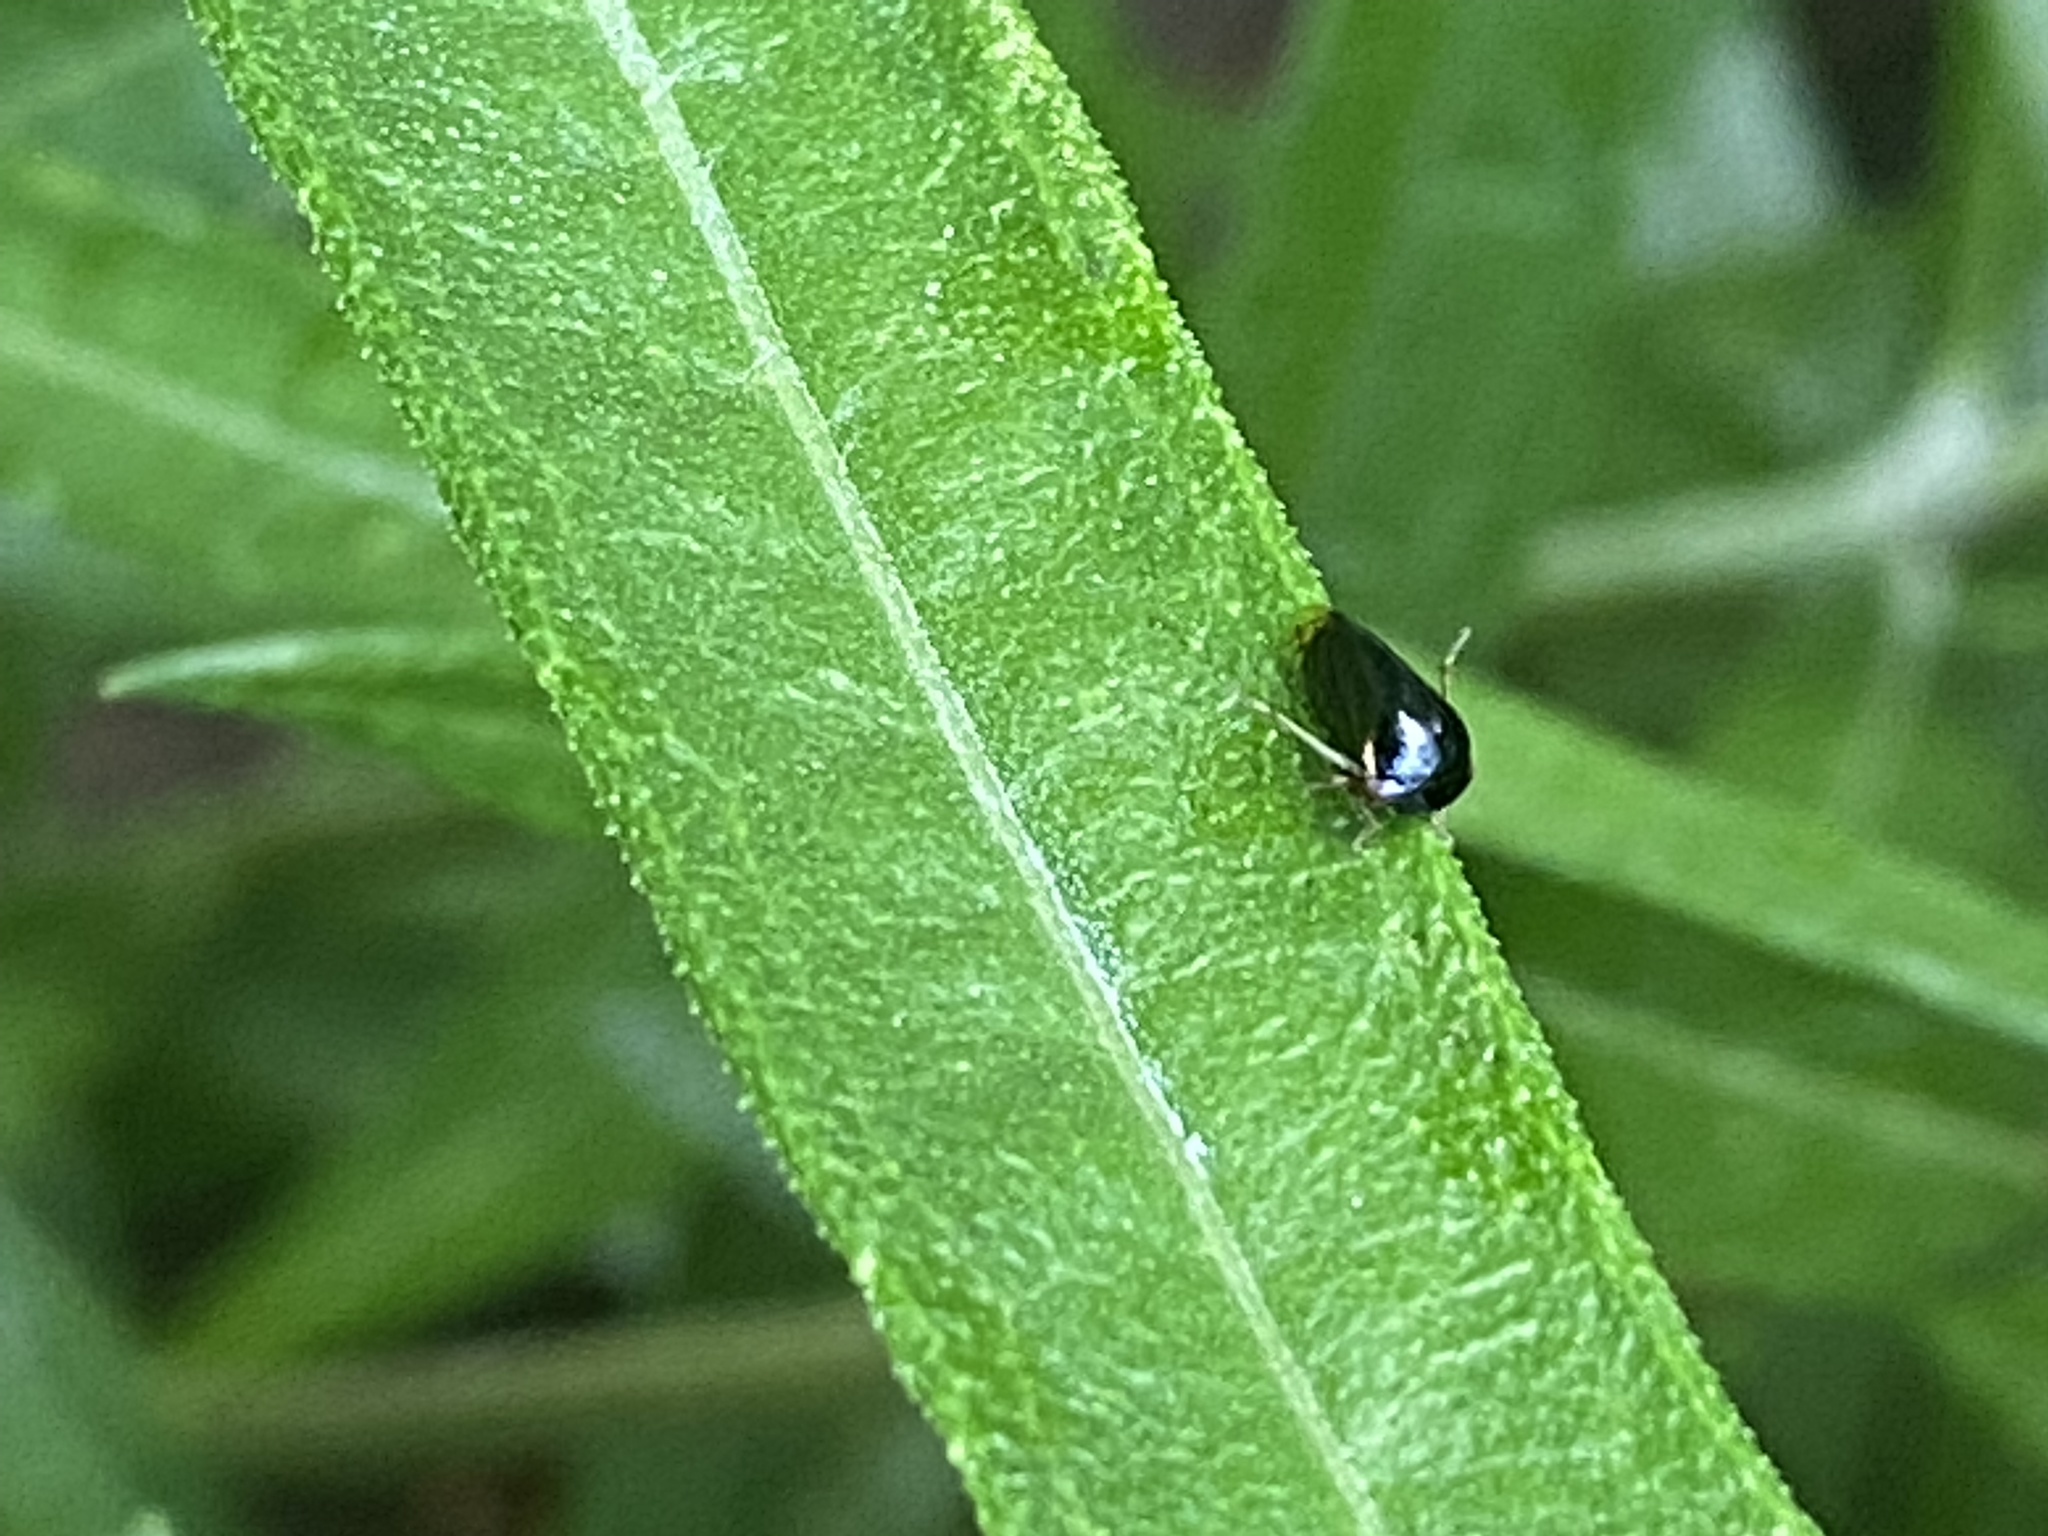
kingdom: Animalia
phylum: Arthropoda
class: Insecta
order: Hemiptera
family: Membracidae
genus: Acutalis
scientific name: Acutalis tartarea
